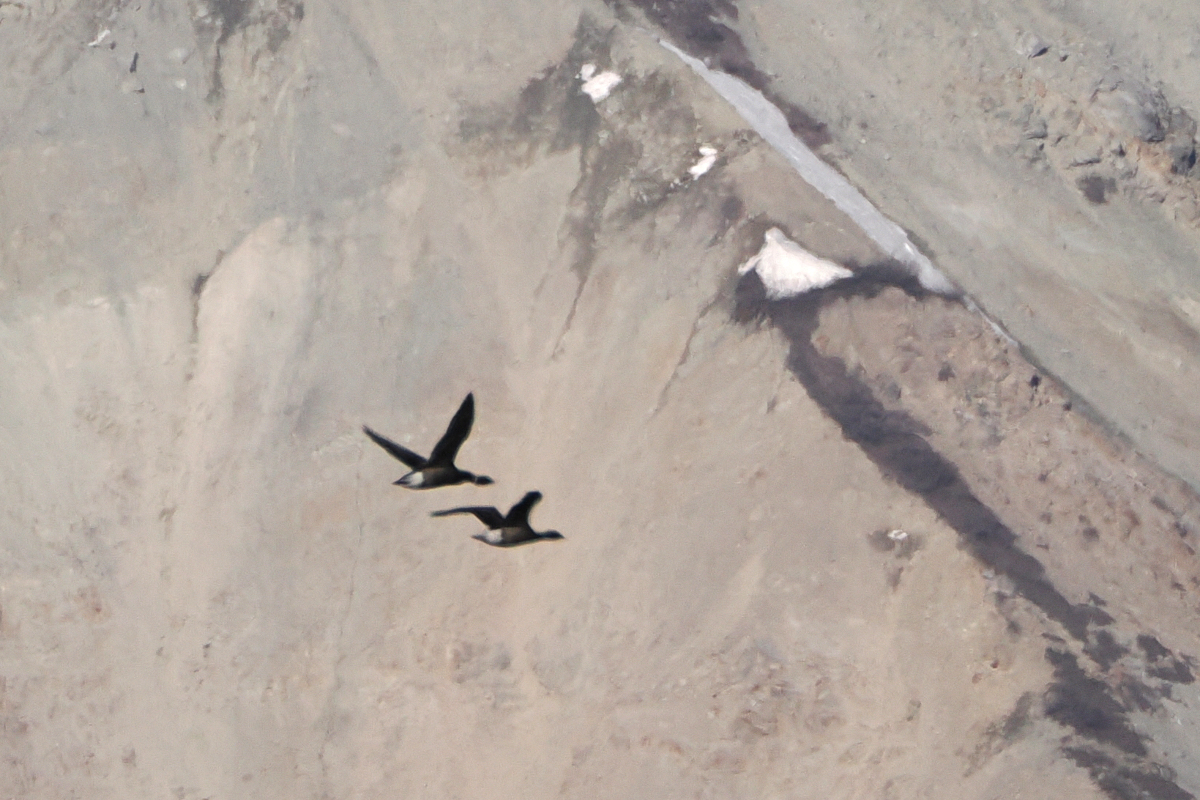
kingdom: Animalia
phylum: Chordata
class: Aves
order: Anseriformes
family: Anatidae
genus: Branta
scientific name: Branta bernicla
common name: Brant goose
